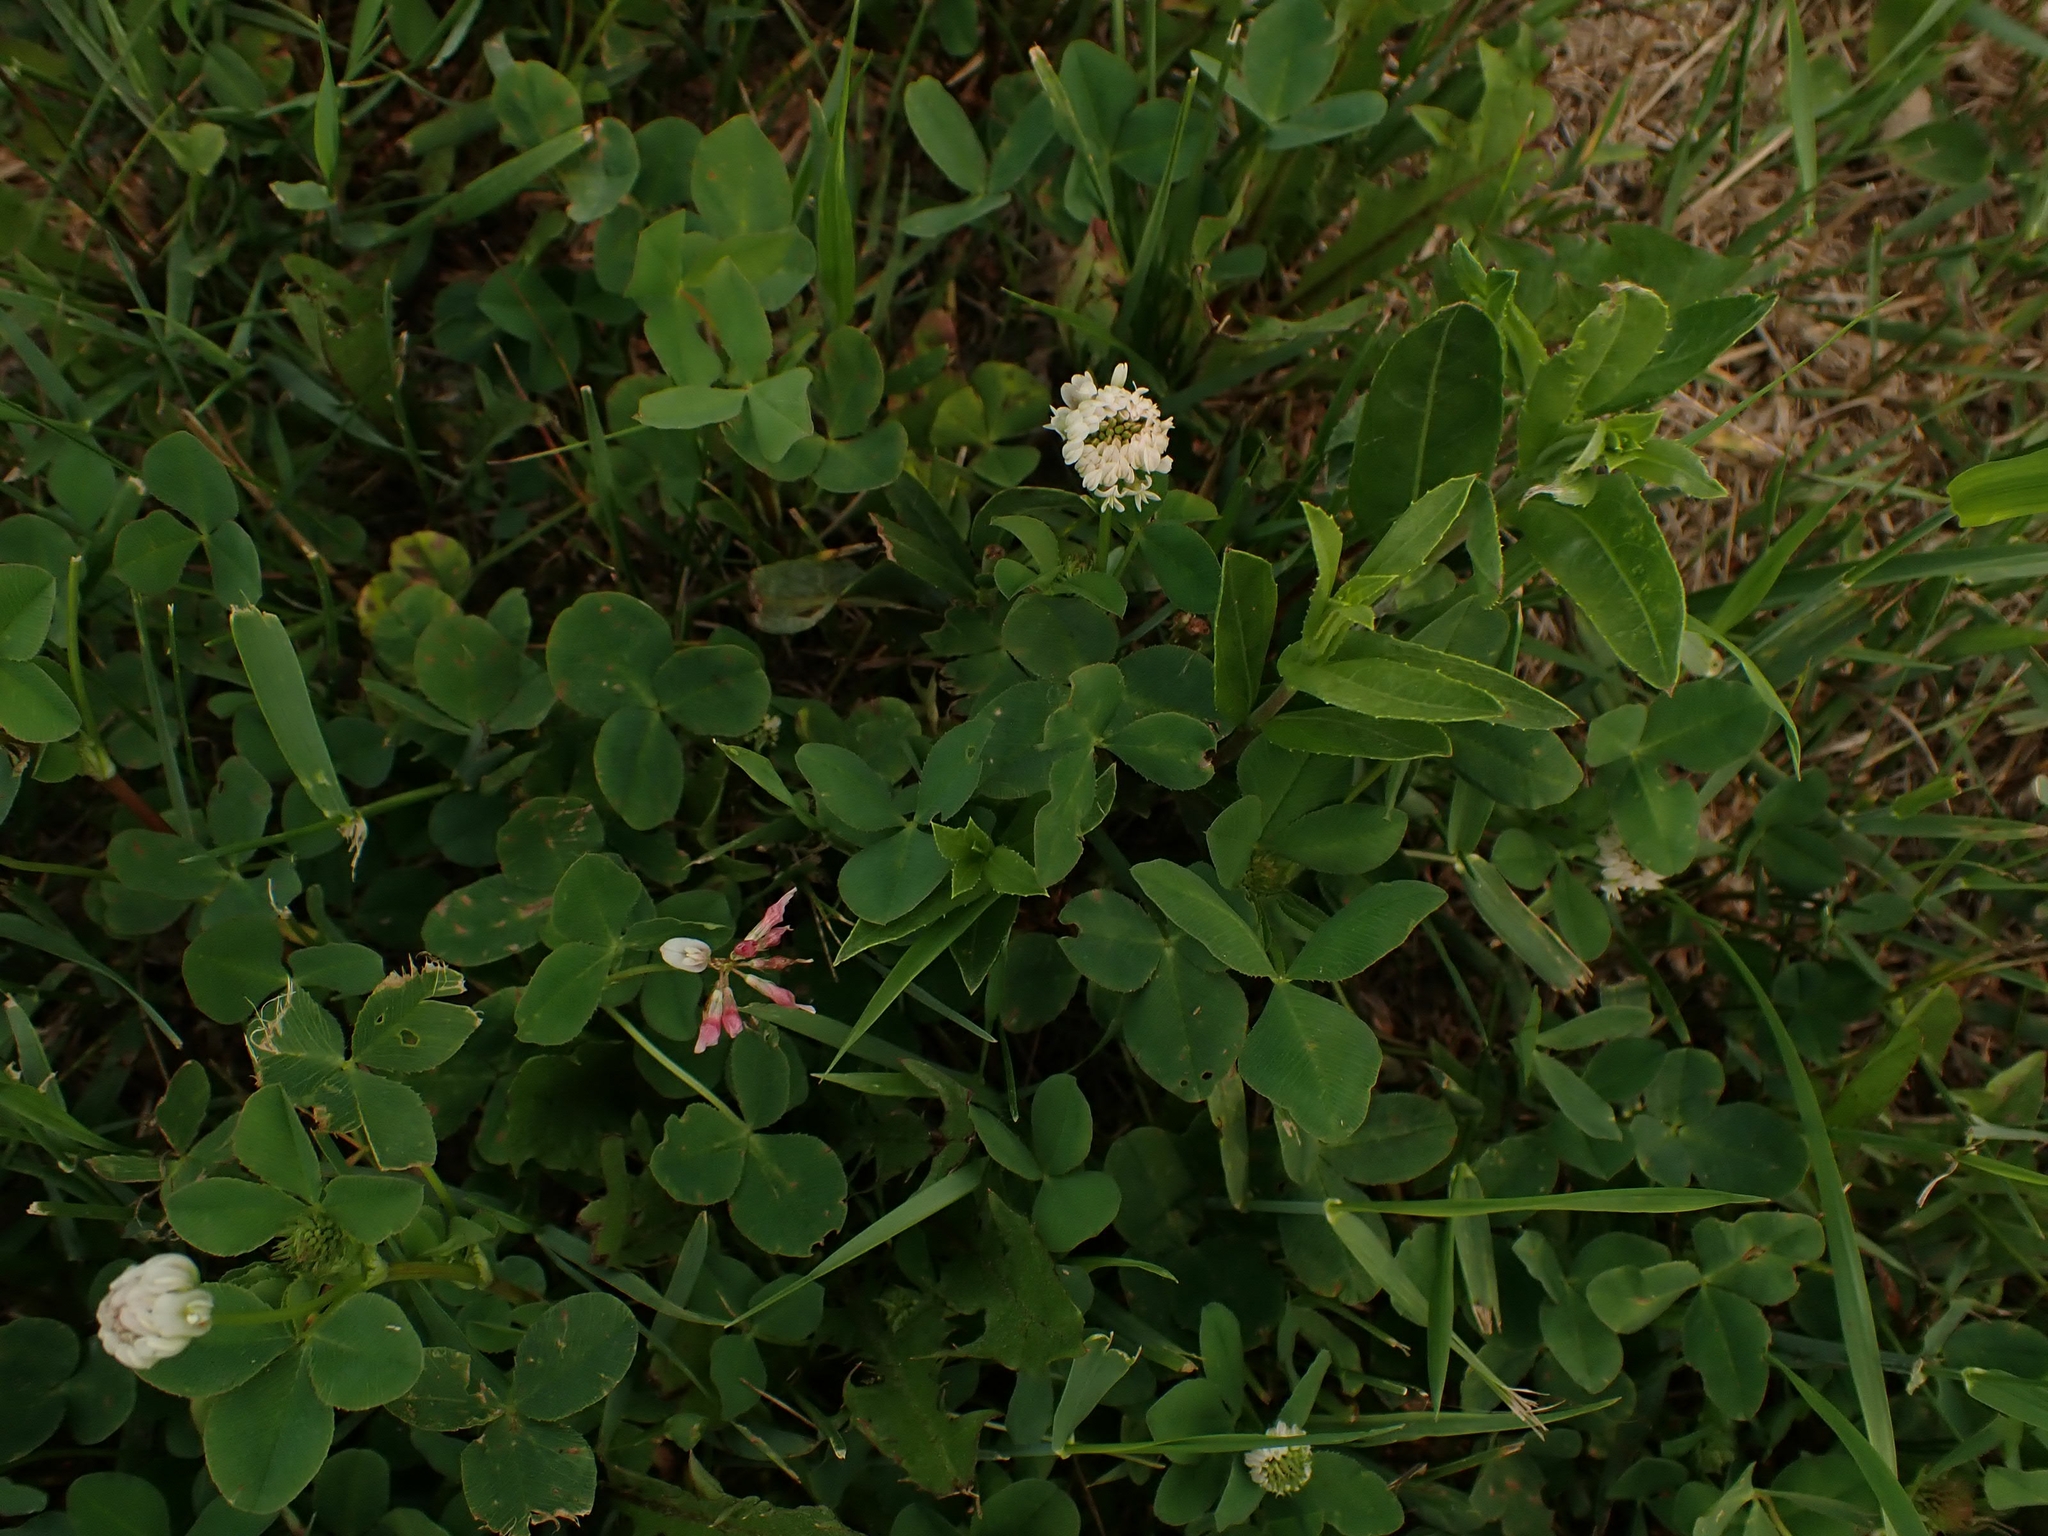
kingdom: Plantae
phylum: Tracheophyta
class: Magnoliopsida
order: Fabales
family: Fabaceae
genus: Trifolium
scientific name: Trifolium hybridum
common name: Alsike clover
